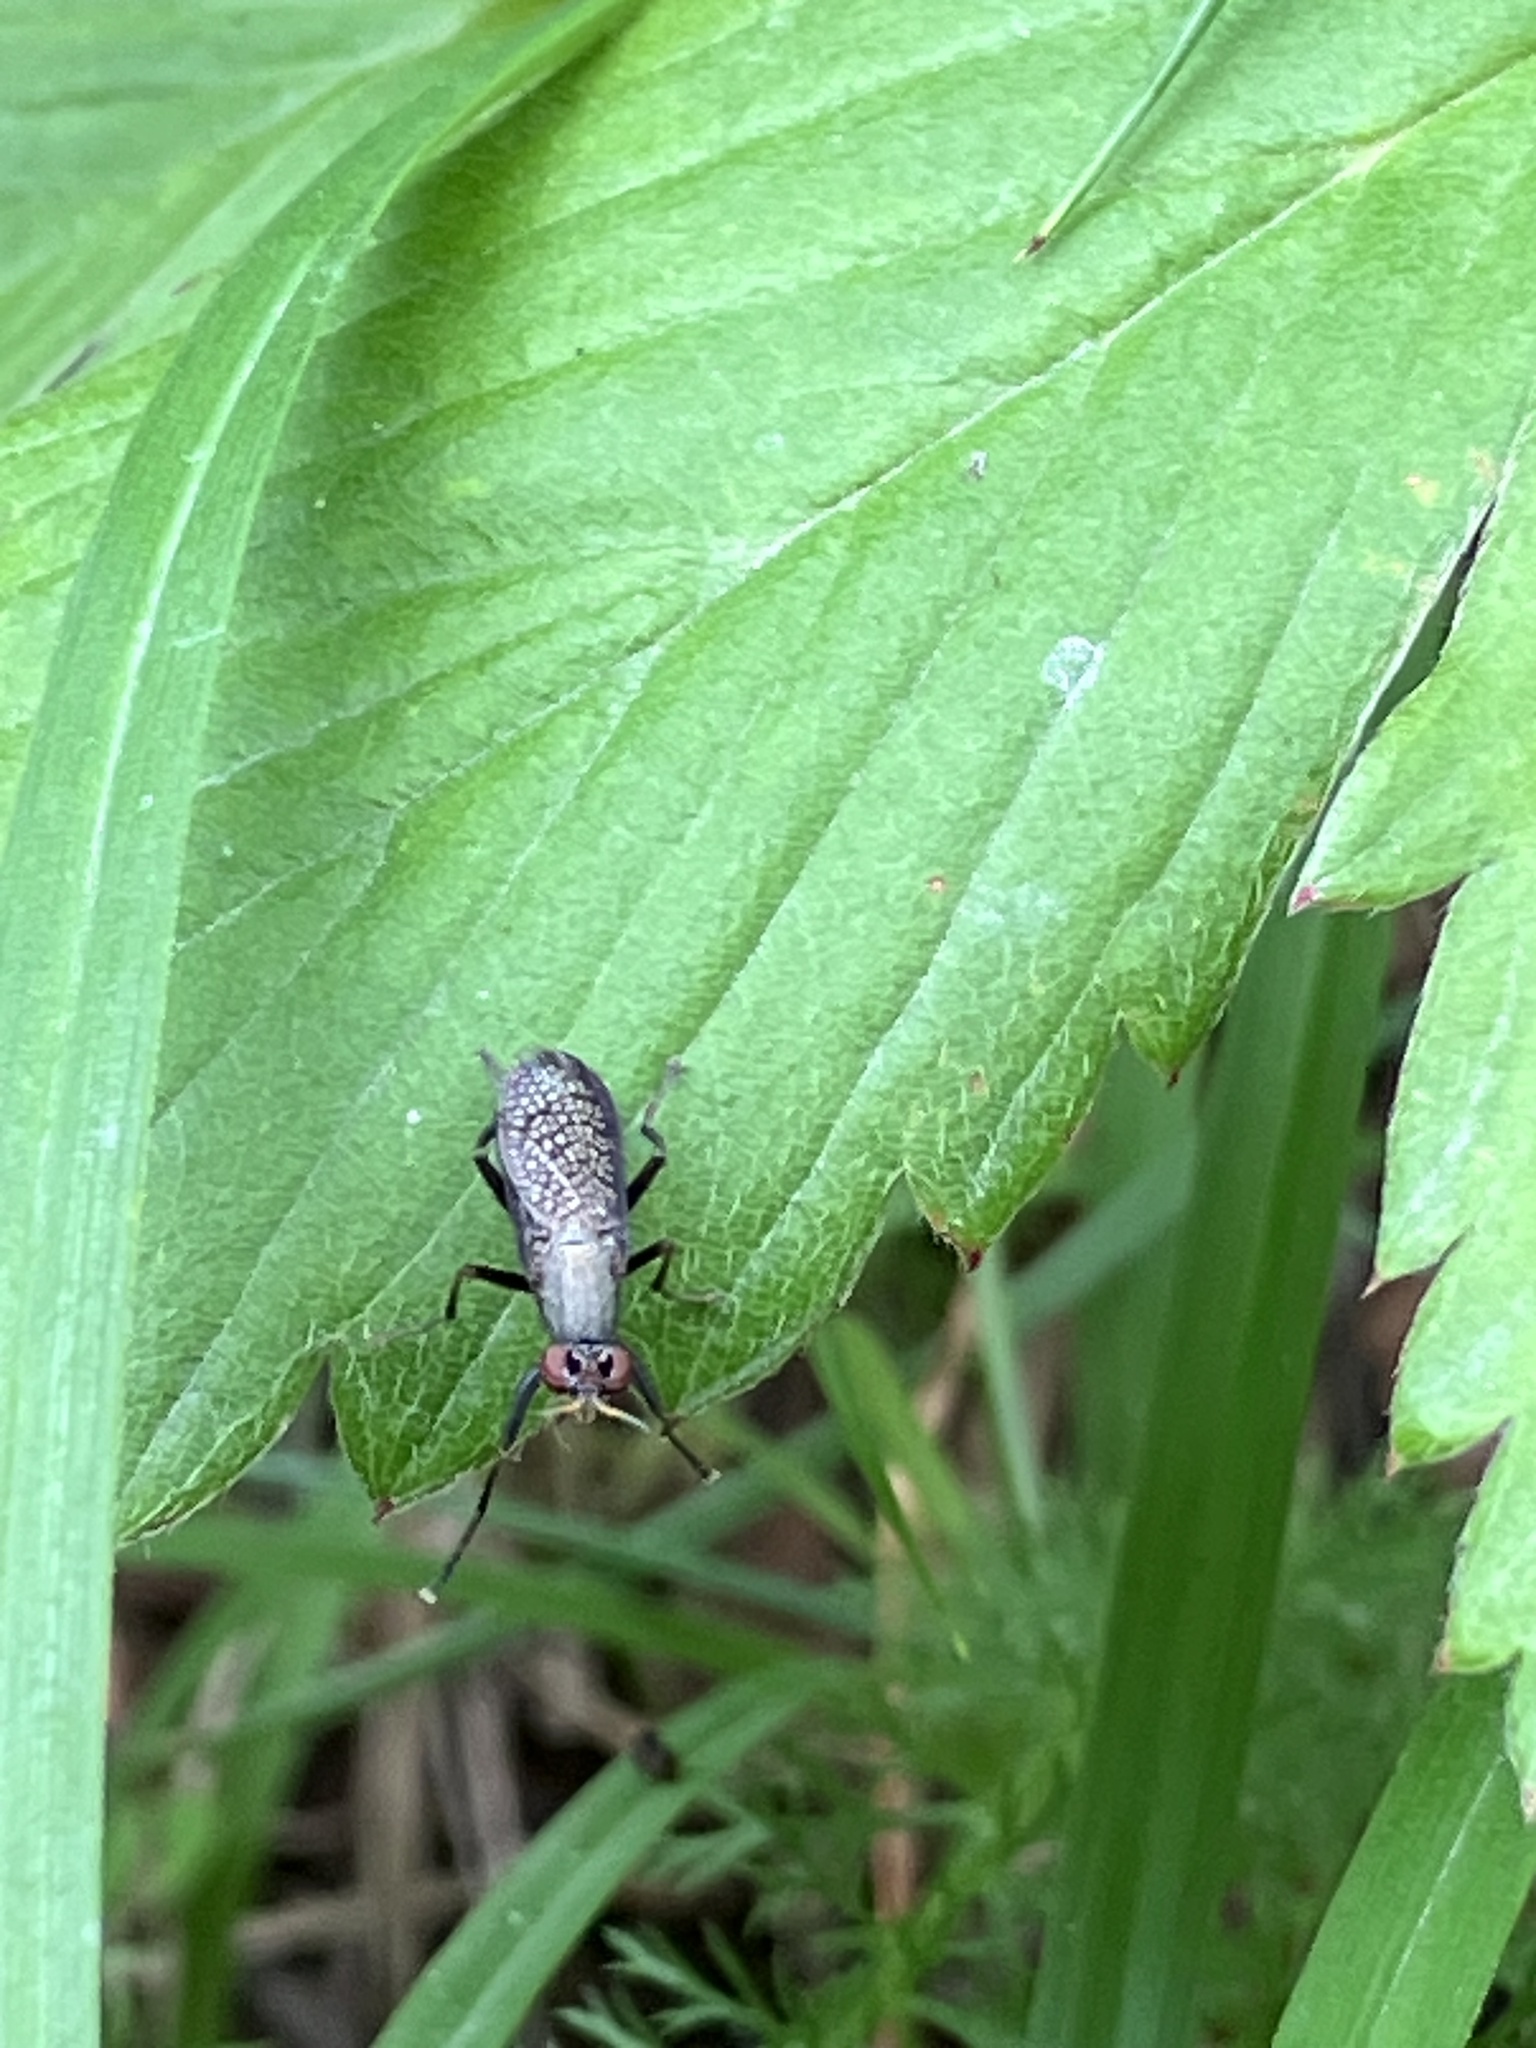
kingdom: Animalia
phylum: Arthropoda
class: Insecta
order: Diptera
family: Sciomyzidae
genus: Coremacera
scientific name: Coremacera marginata
